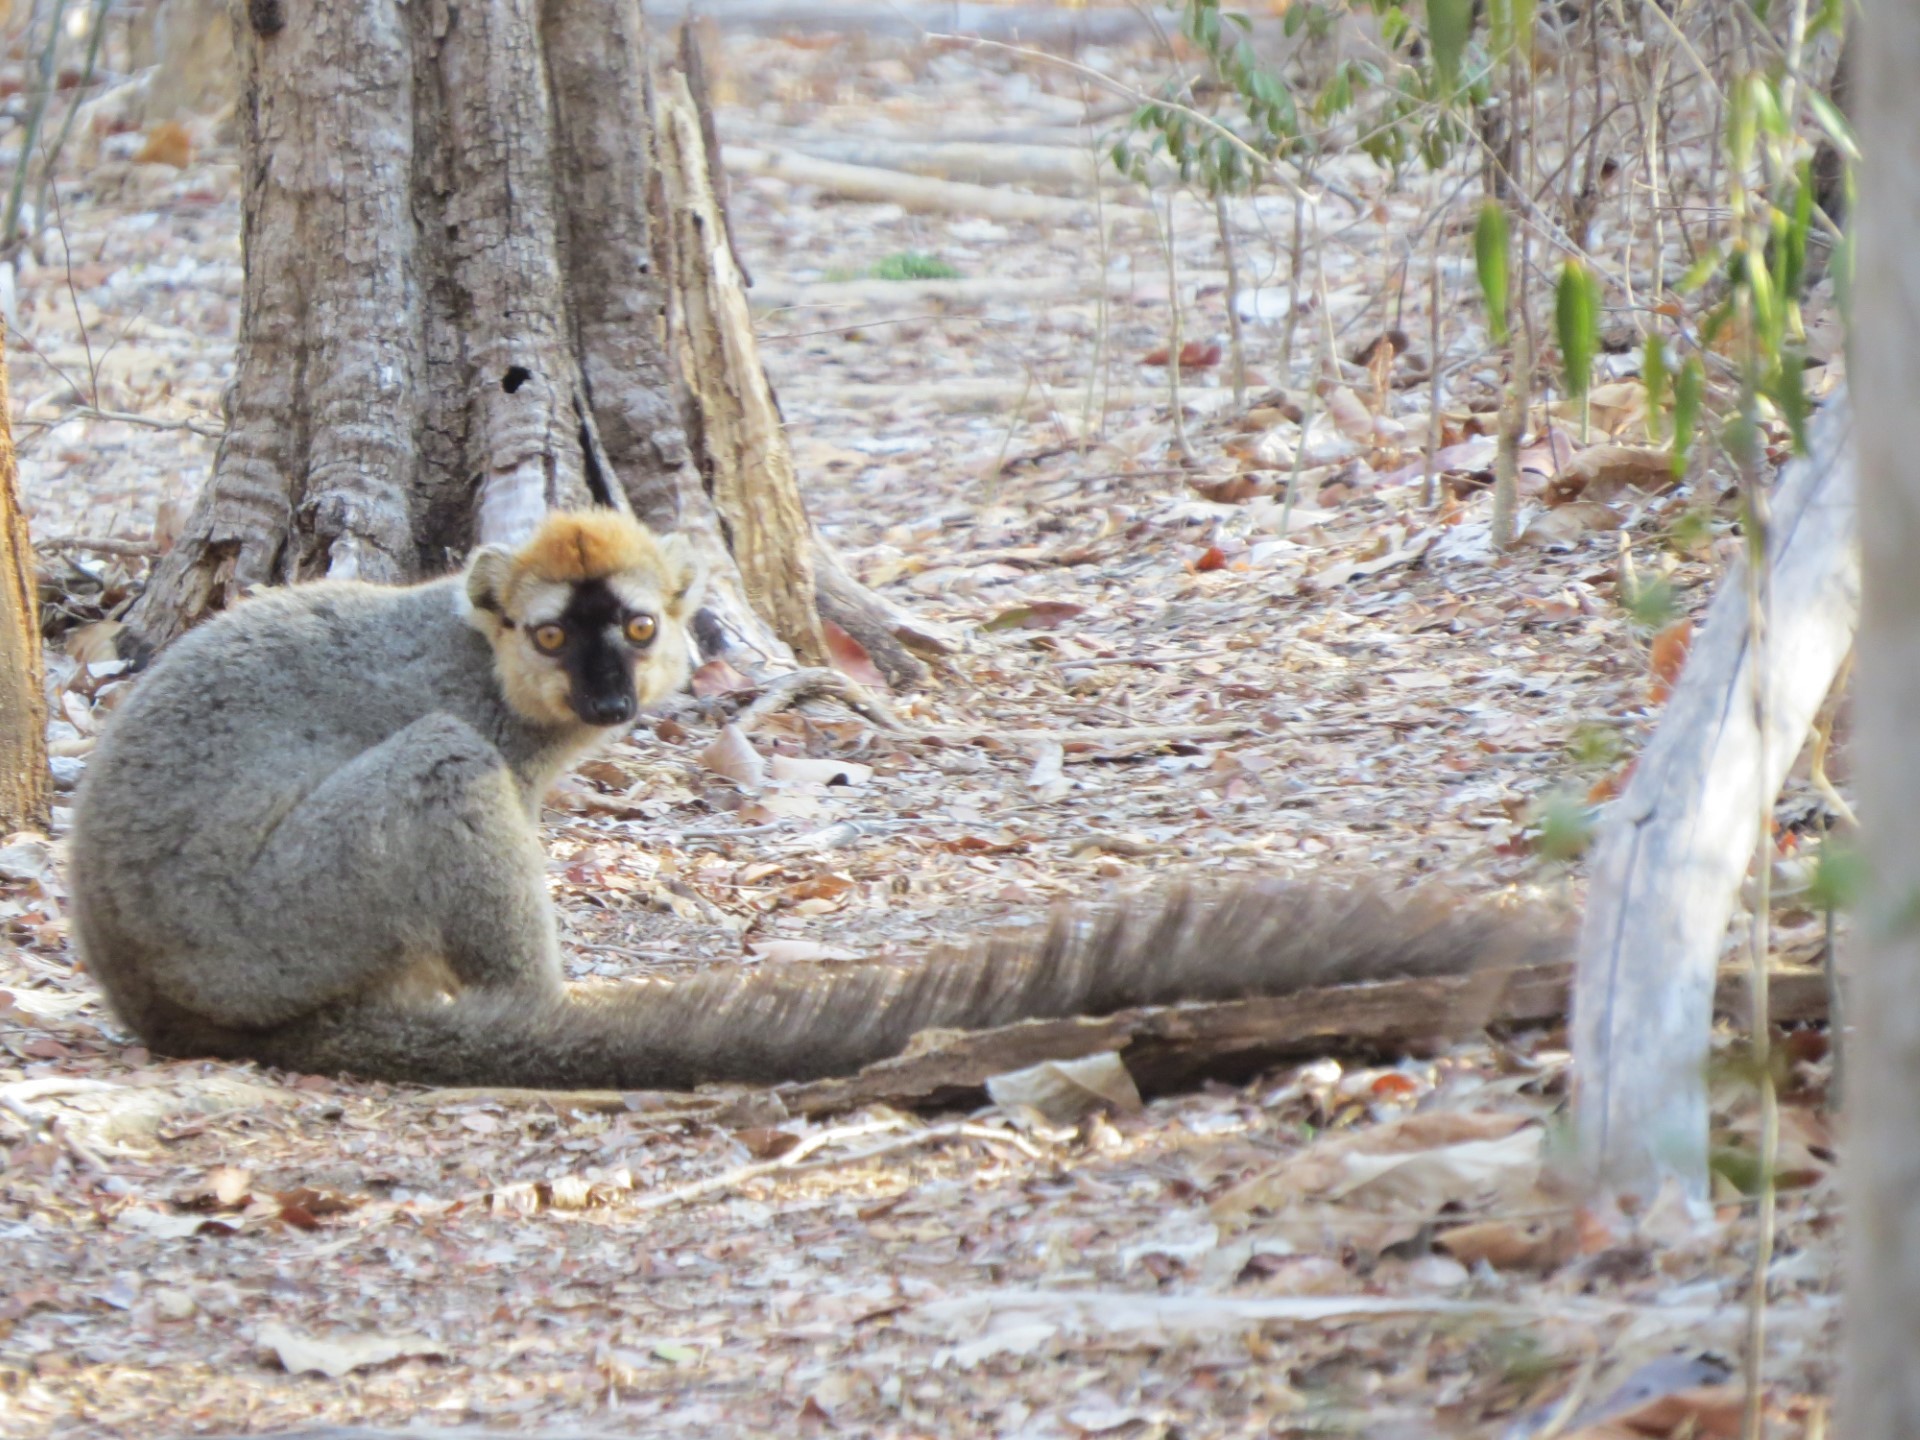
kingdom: Animalia
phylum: Chordata
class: Mammalia
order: Primates
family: Lemuridae
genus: Eulemur
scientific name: Eulemur rufifrons
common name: Red-fronted brown lemur
